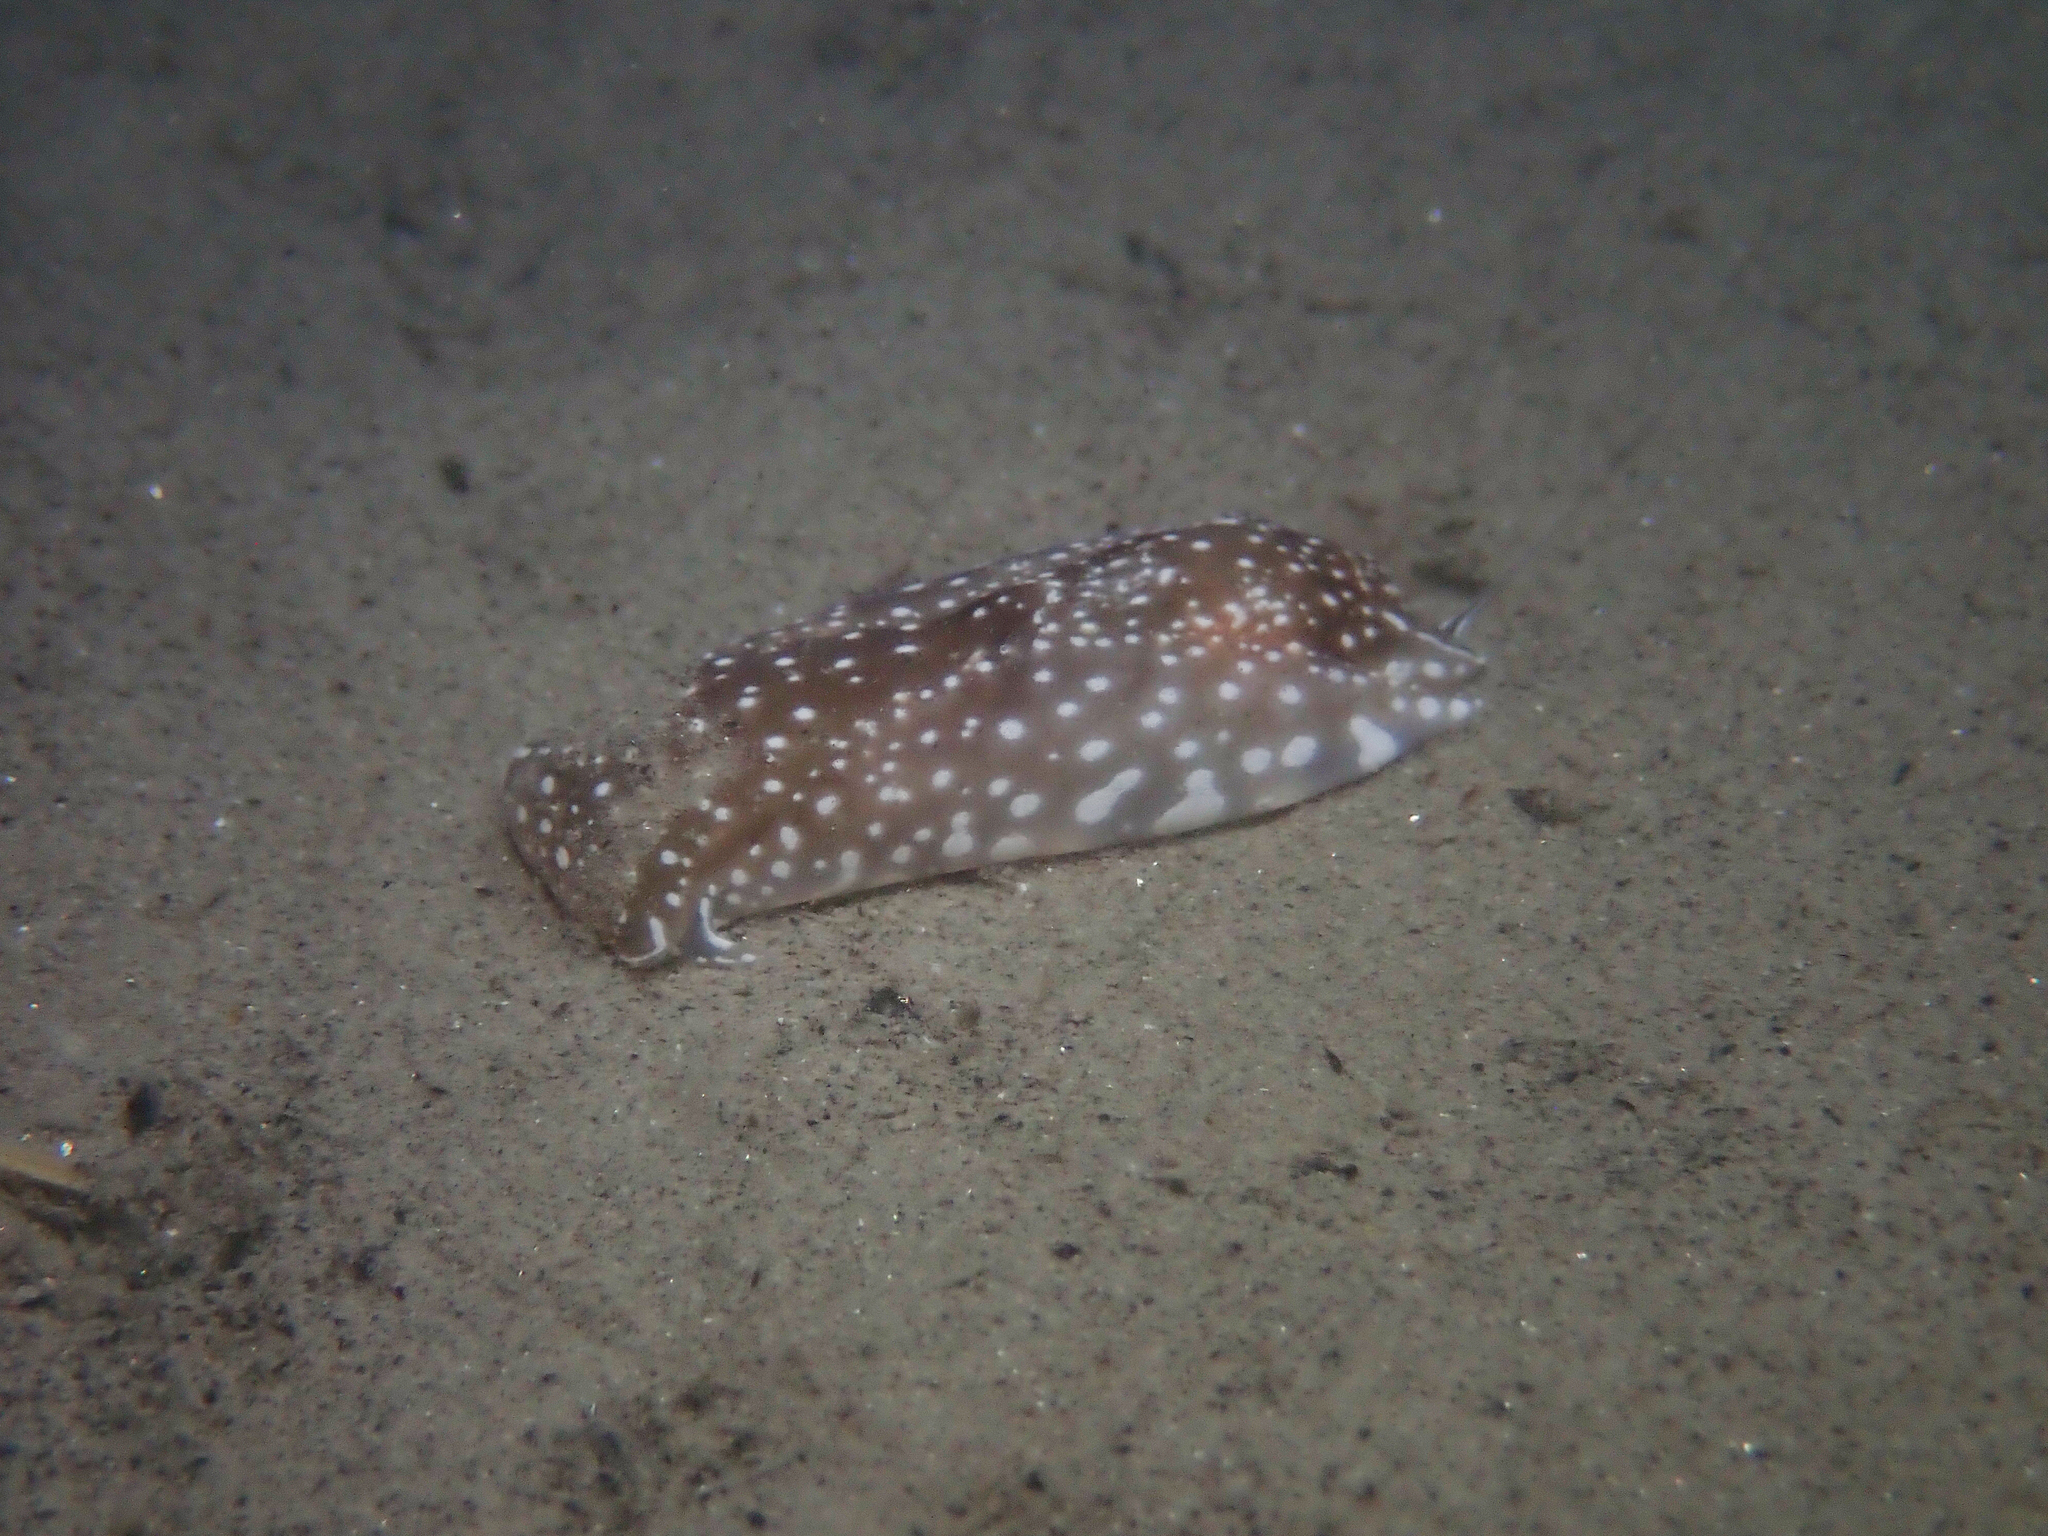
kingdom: Animalia
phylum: Mollusca
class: Gastropoda
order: Cephalaspidea
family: Aglajidae
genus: Aglaja
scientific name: Aglaja tricolorata
